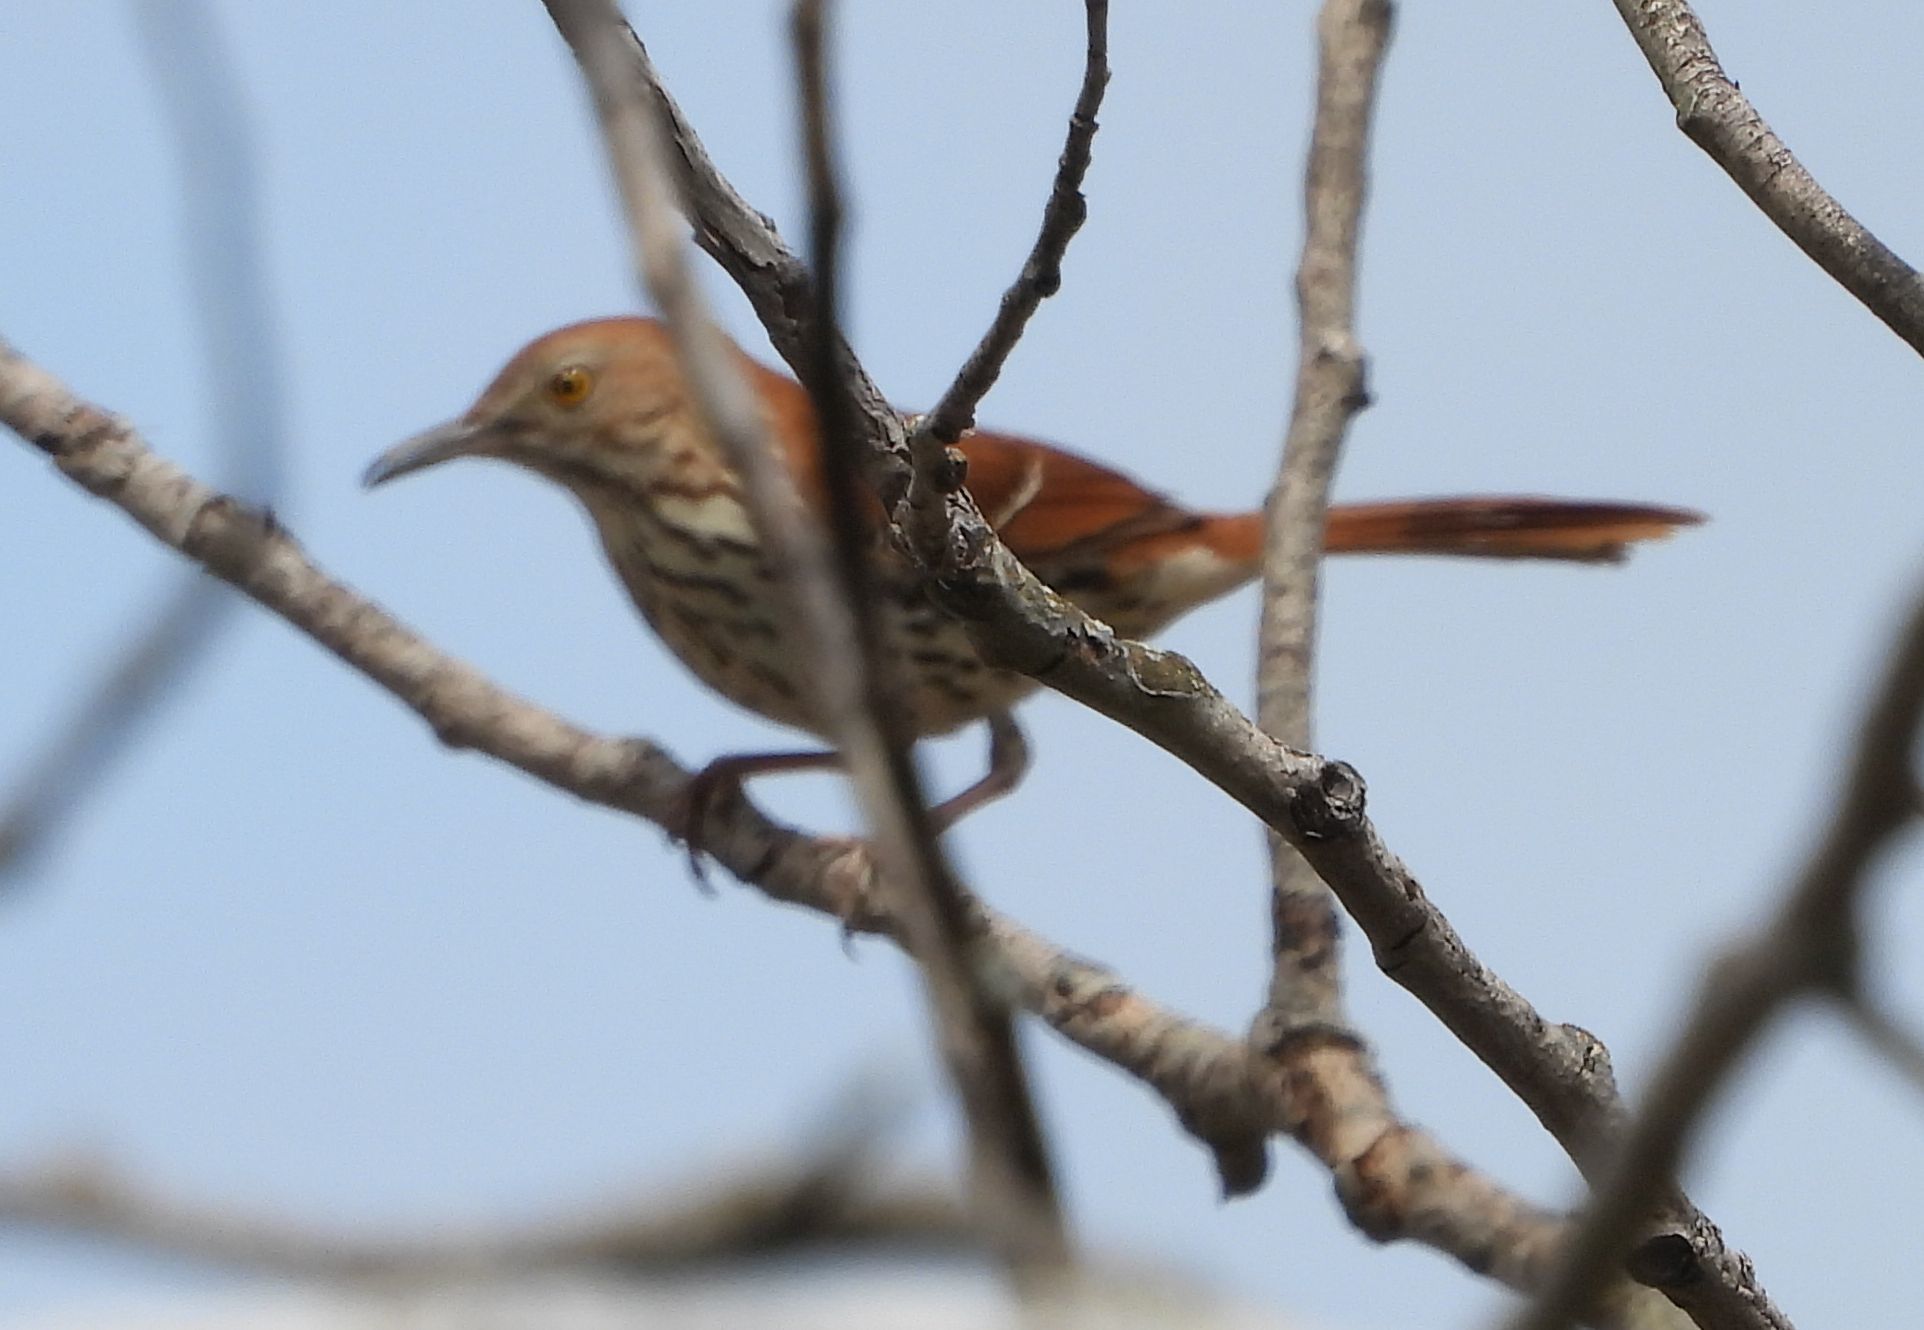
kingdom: Animalia
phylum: Chordata
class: Aves
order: Passeriformes
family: Mimidae
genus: Toxostoma
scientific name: Toxostoma rufum
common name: Brown thrasher
